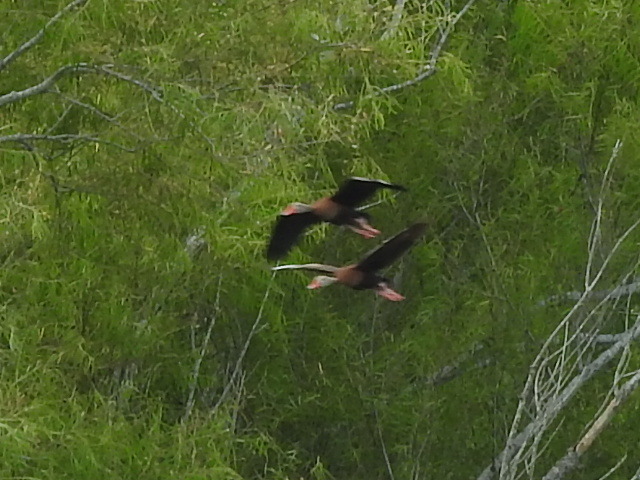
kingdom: Animalia
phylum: Chordata
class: Aves
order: Anseriformes
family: Anatidae
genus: Dendrocygna
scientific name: Dendrocygna autumnalis
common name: Black-bellied whistling duck
